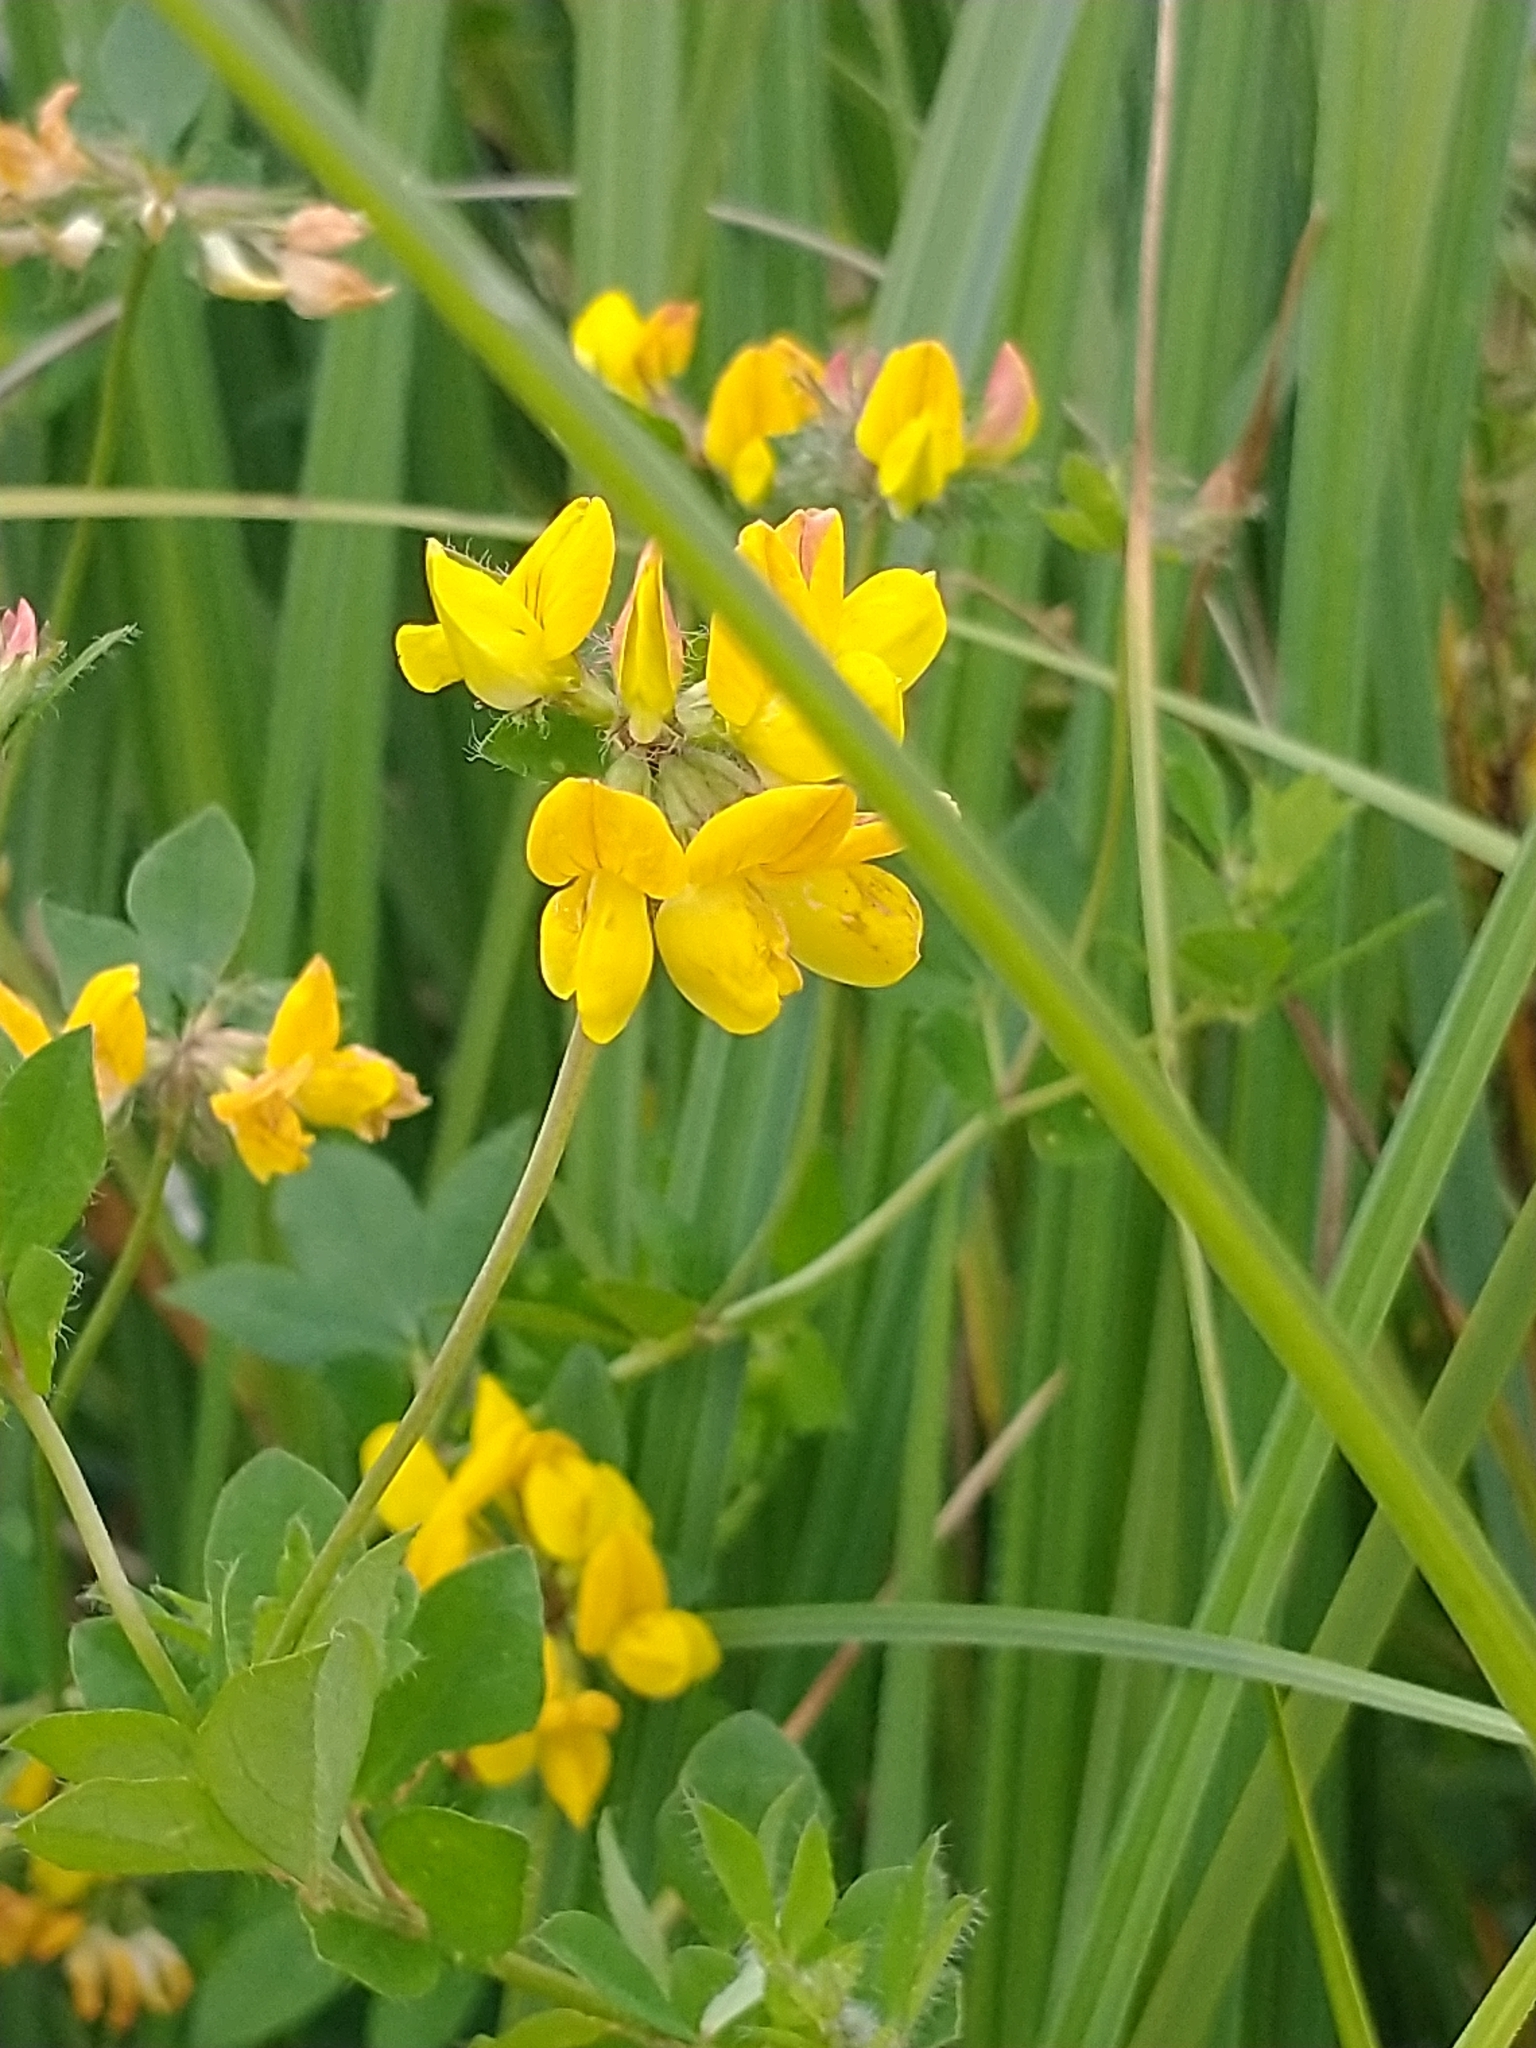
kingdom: Plantae
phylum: Tracheophyta
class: Magnoliopsida
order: Fabales
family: Fabaceae
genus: Lotus
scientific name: Lotus pedunculatus
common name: Greater birdsfoot-trefoil
